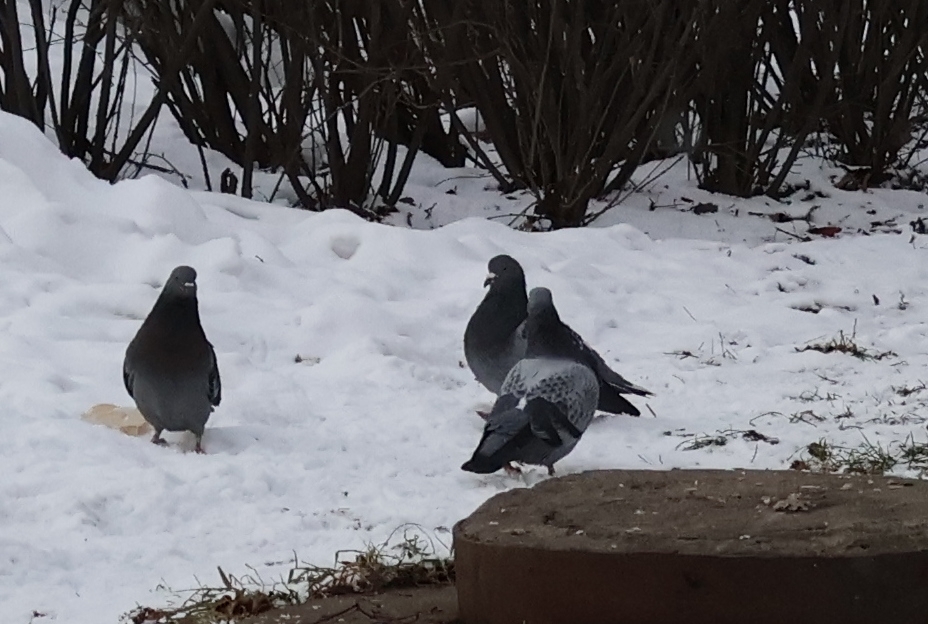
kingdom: Animalia
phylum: Chordata
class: Aves
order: Columbiformes
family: Columbidae
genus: Columba
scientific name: Columba livia
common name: Rock pigeon
